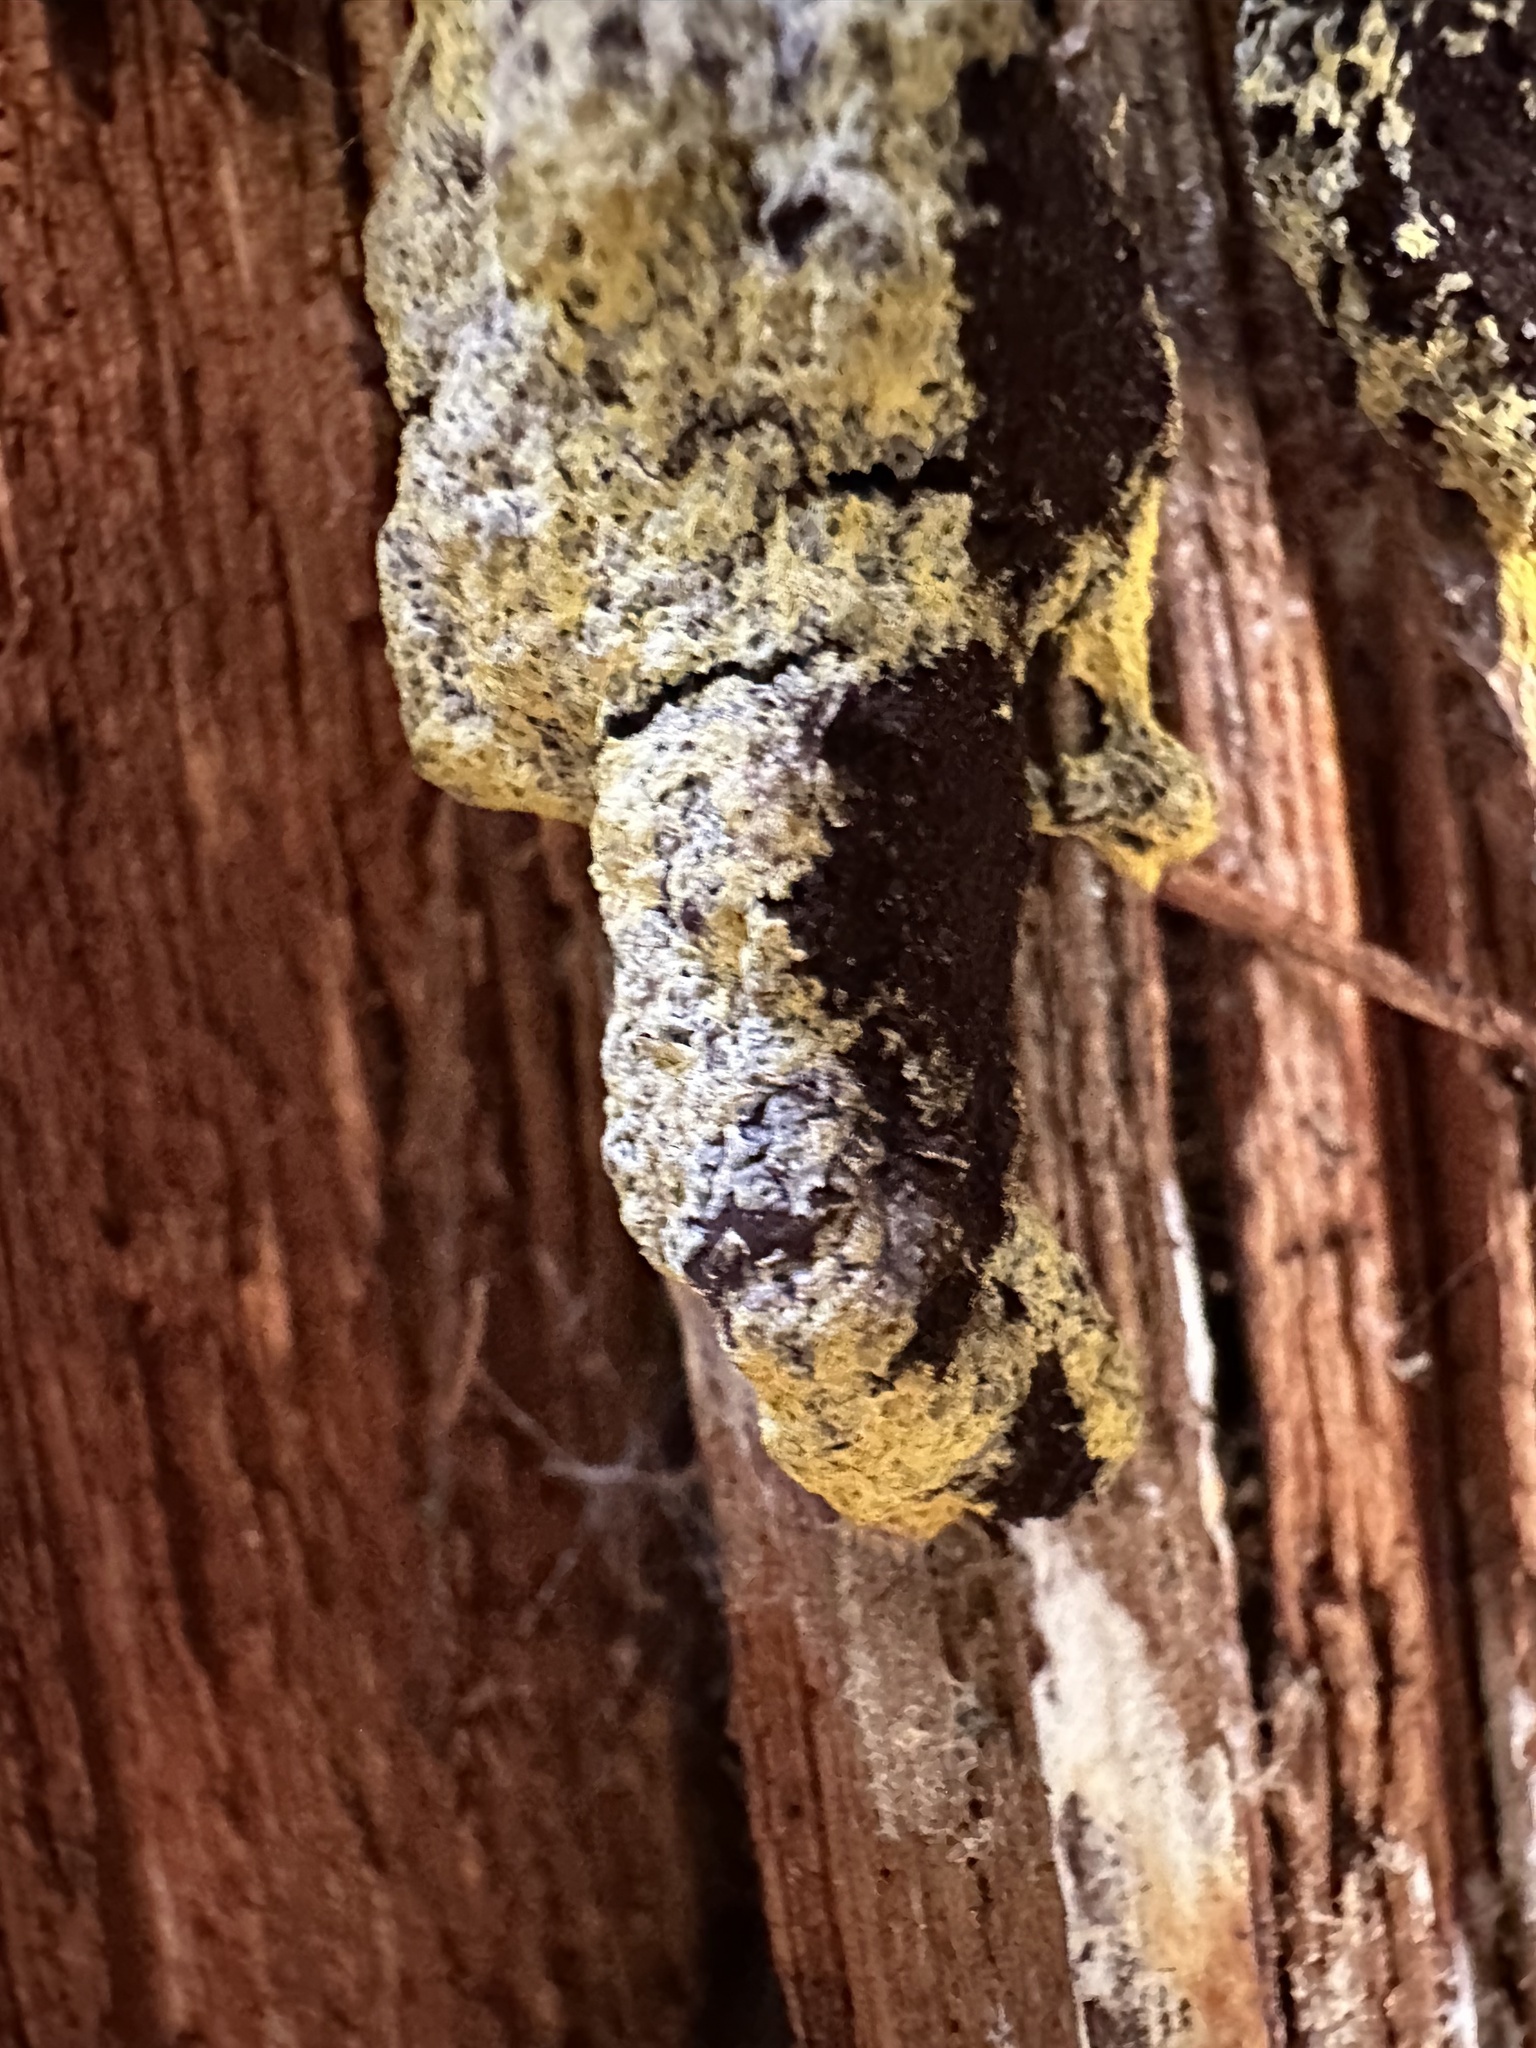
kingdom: Protozoa
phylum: Mycetozoa
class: Myxomycetes
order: Physarales
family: Physaraceae
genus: Fuligo
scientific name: Fuligo septica
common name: Dog vomit slime mold
